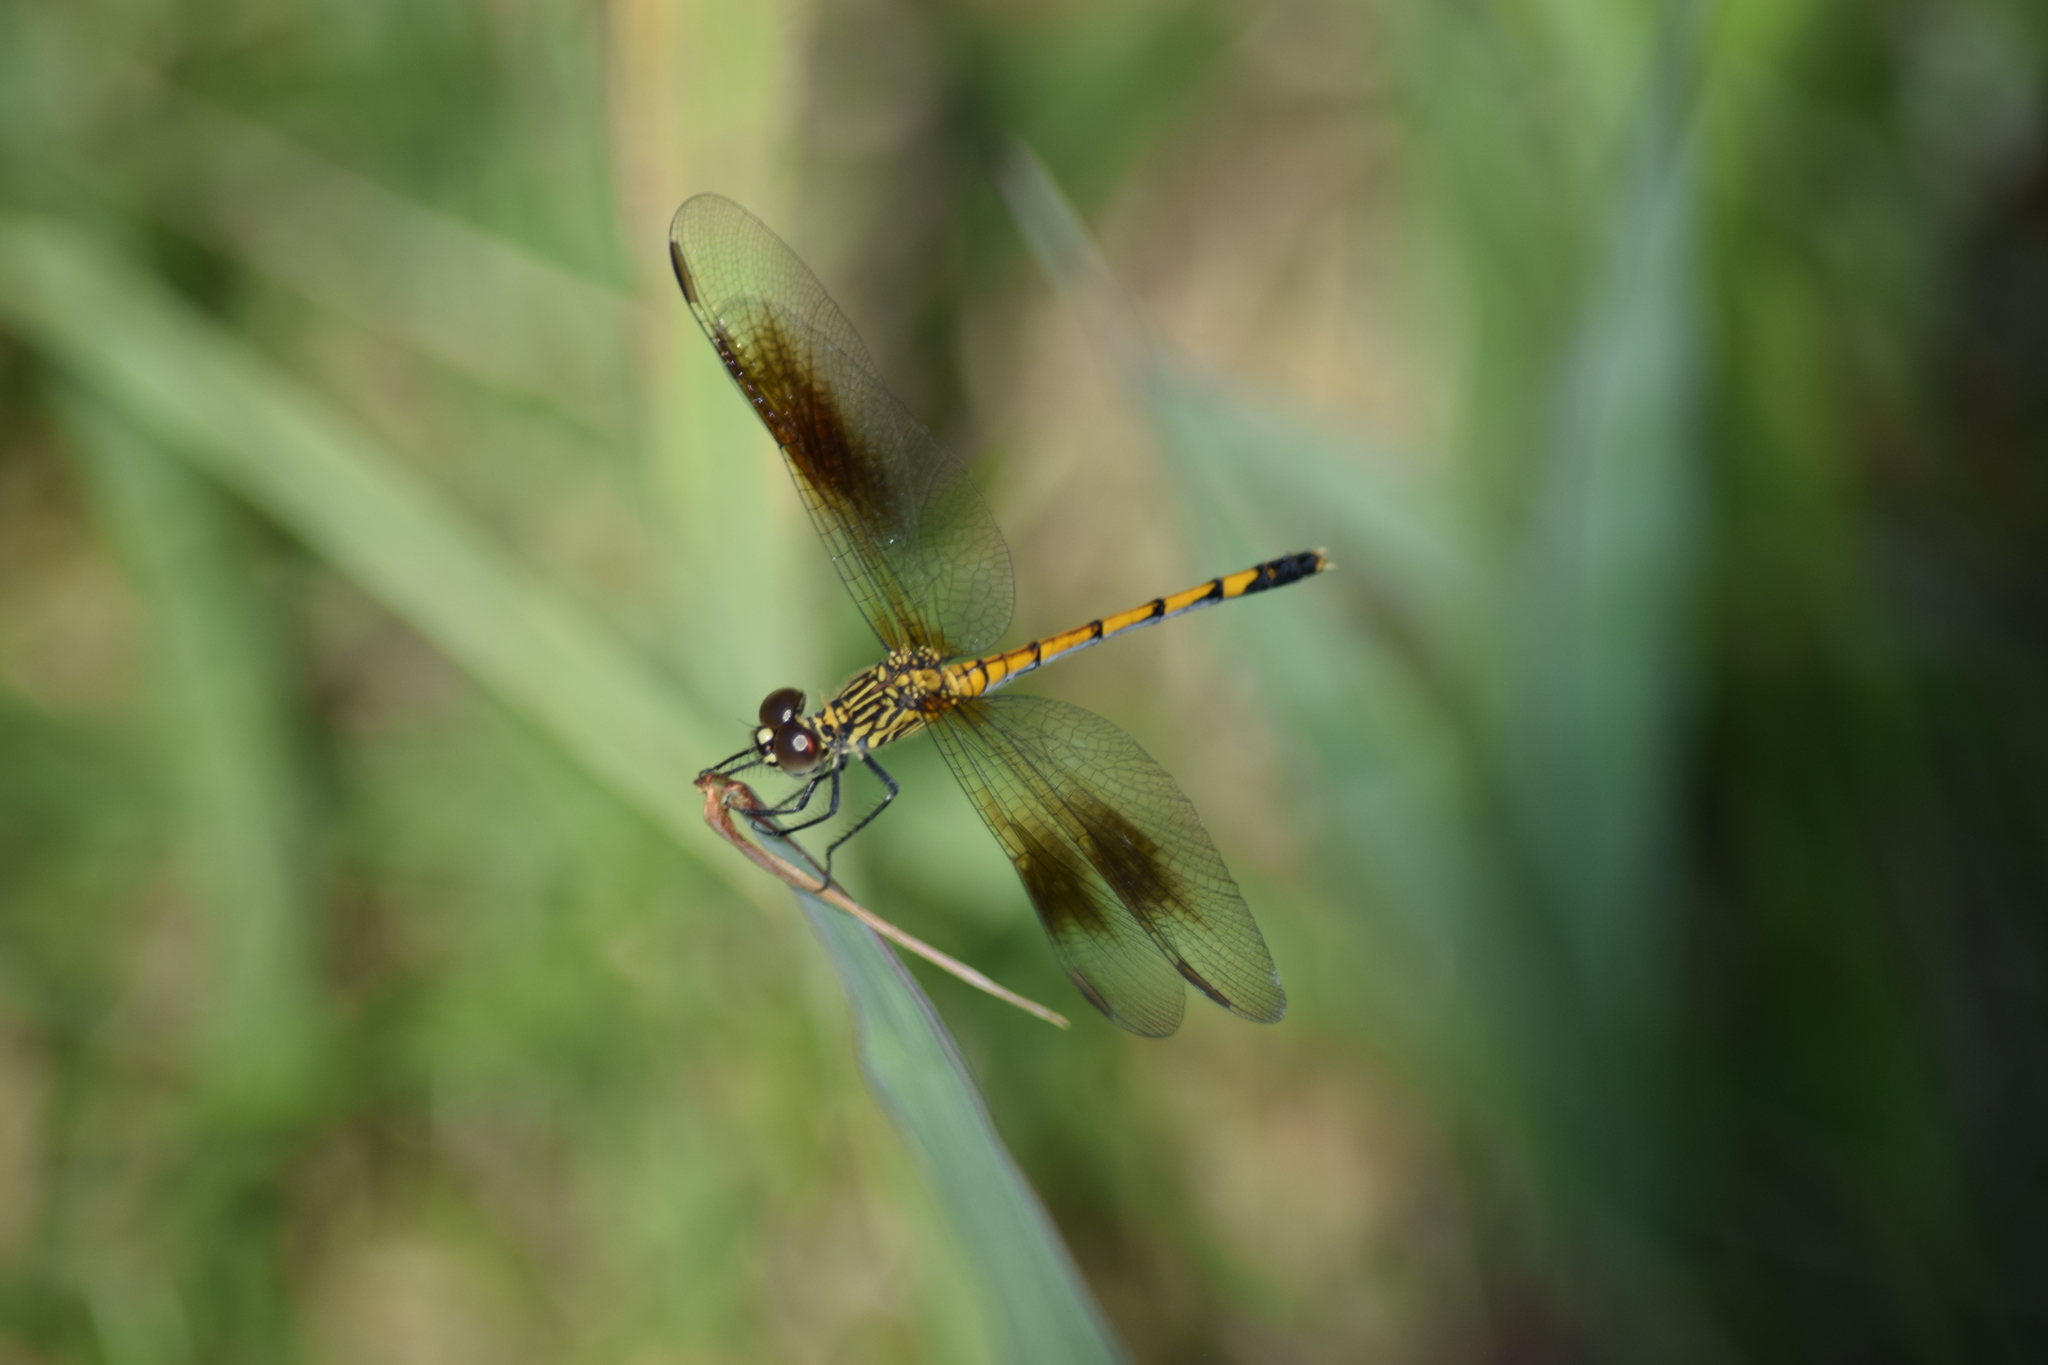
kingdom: Animalia
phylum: Arthropoda
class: Insecta
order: Odonata
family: Libellulidae
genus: Erythrodiplax
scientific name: Erythrodiplax berenice
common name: Seaside dragonlet
